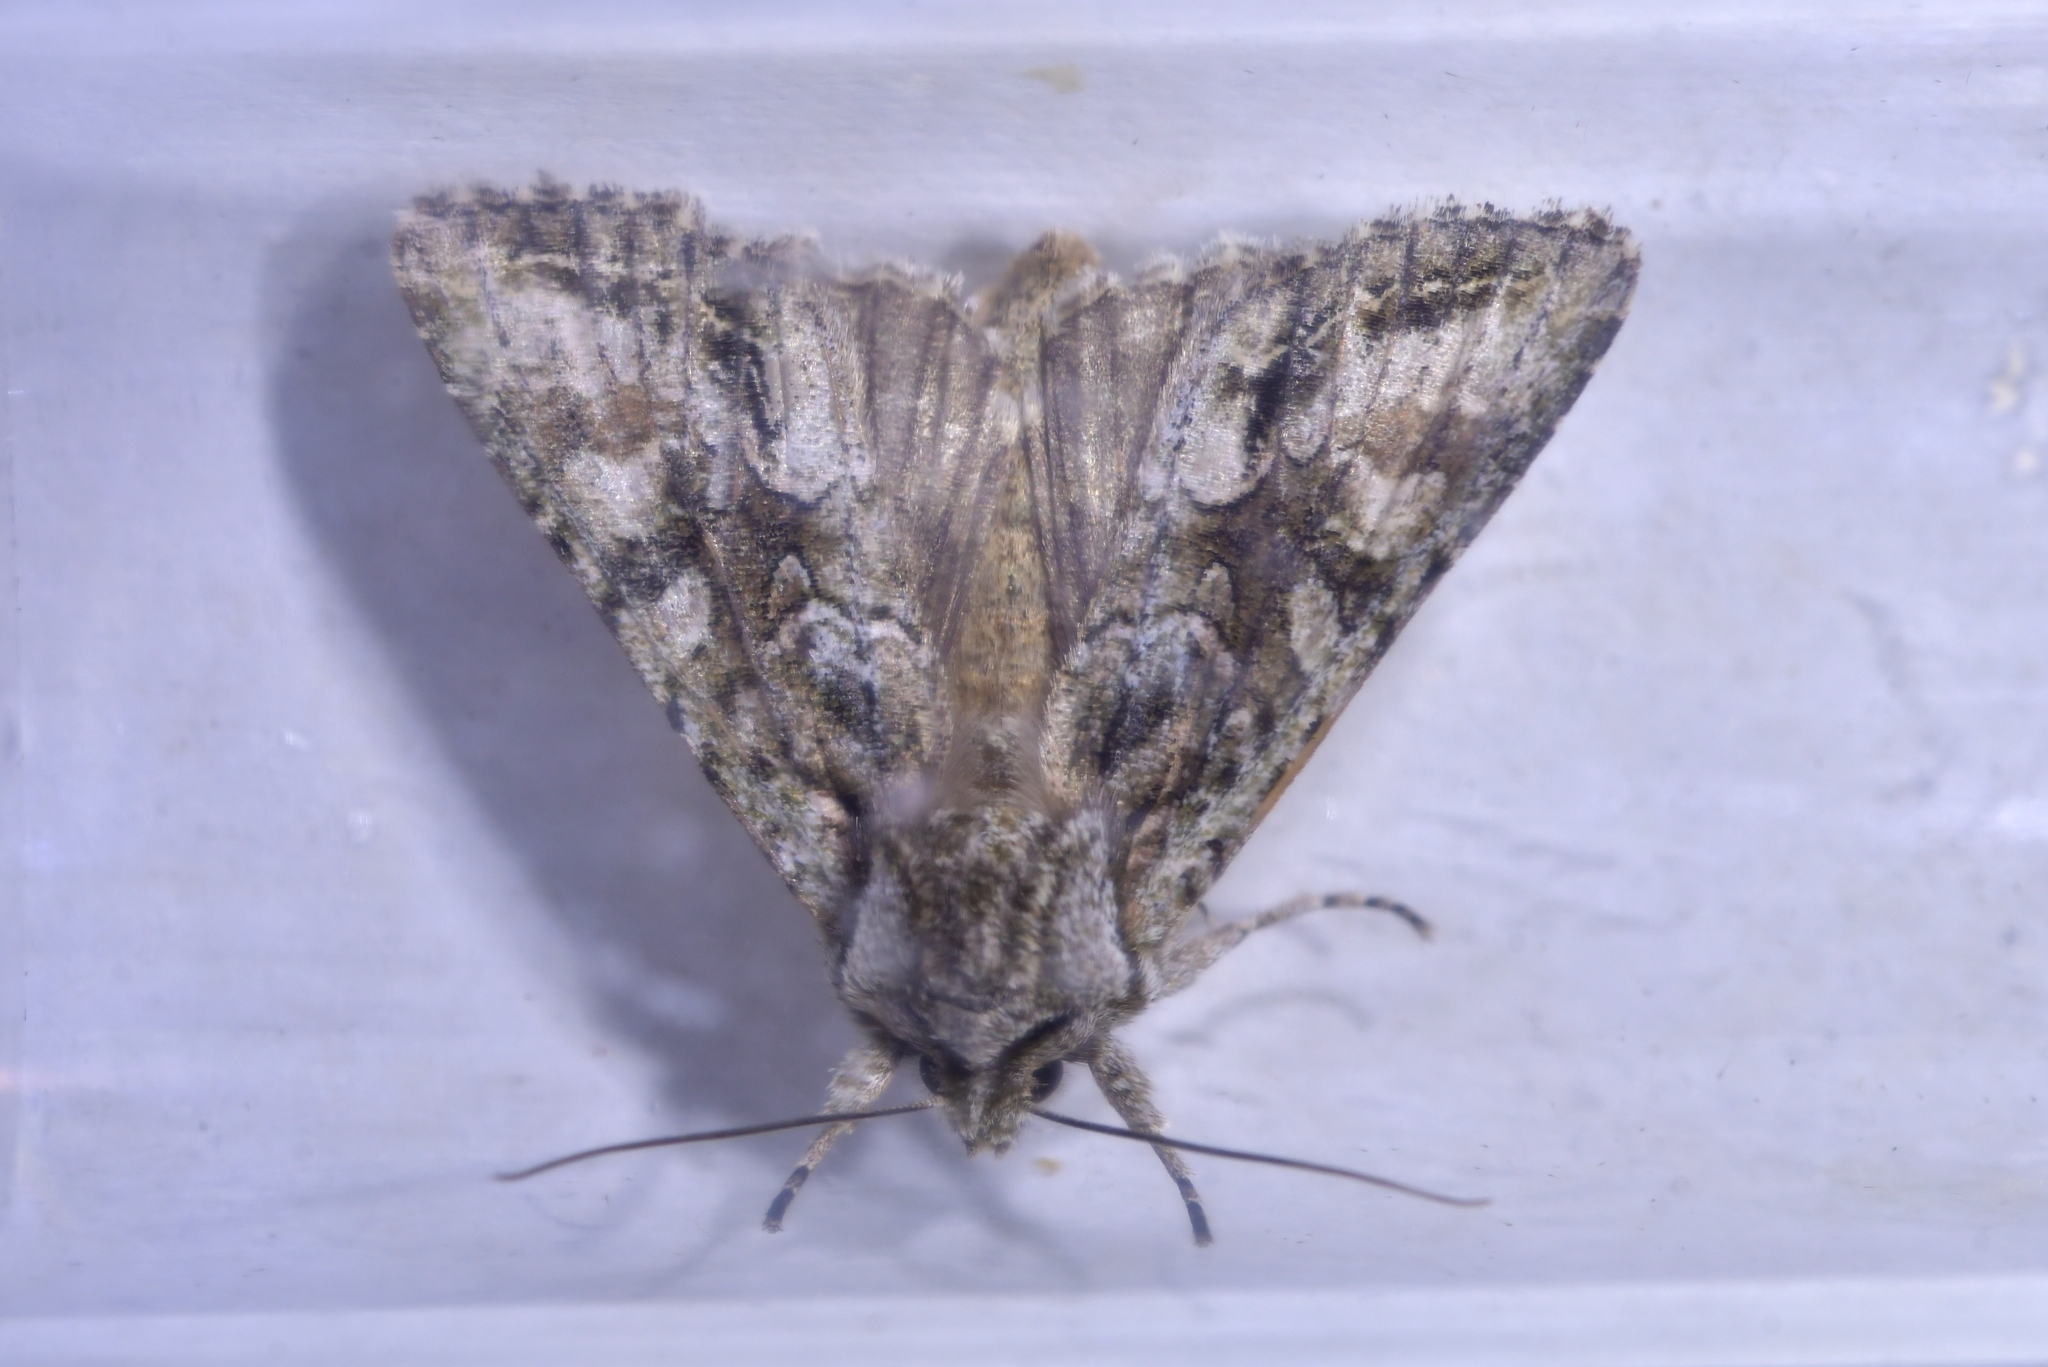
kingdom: Animalia
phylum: Arthropoda
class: Insecta
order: Lepidoptera
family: Noctuidae
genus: Ichneutica
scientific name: Ichneutica mutans
